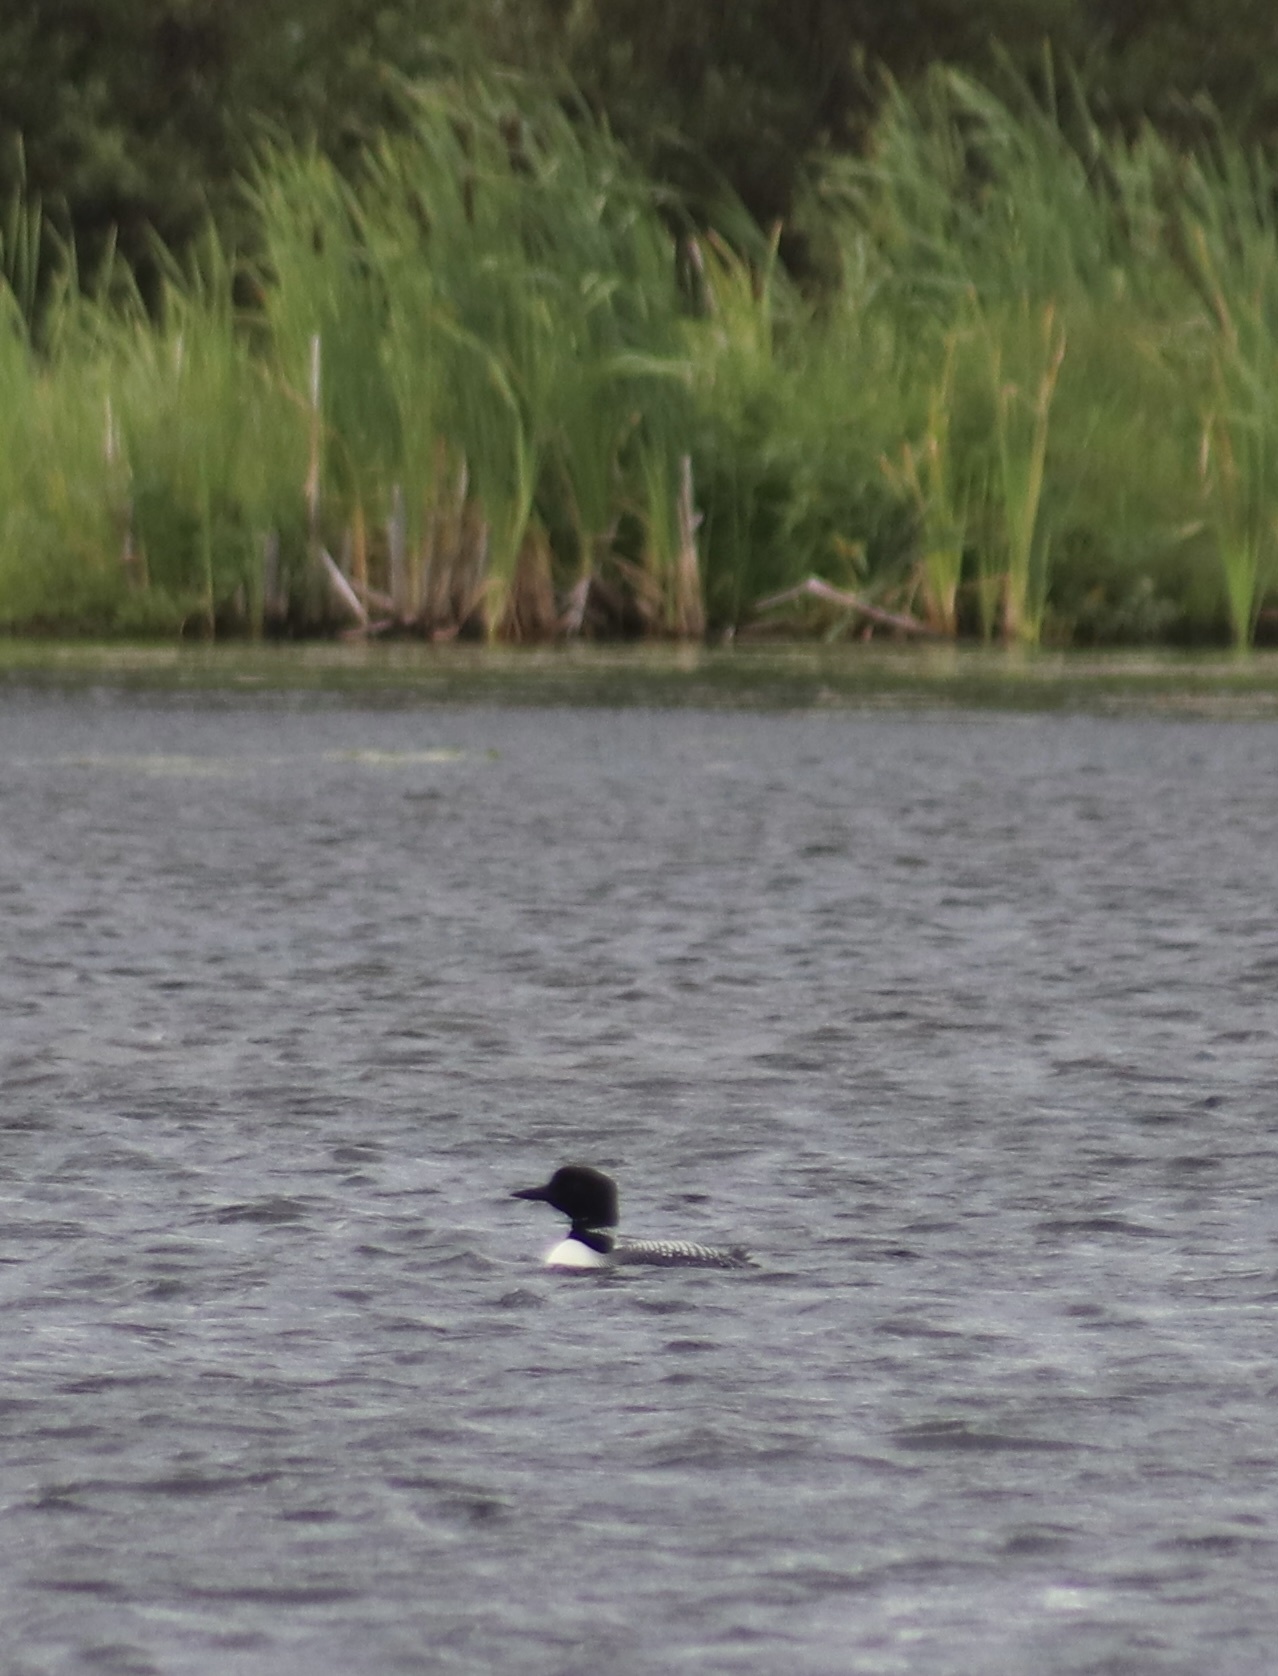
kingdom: Animalia
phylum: Chordata
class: Aves
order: Gaviiformes
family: Gaviidae
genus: Gavia
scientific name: Gavia immer
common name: Common loon
